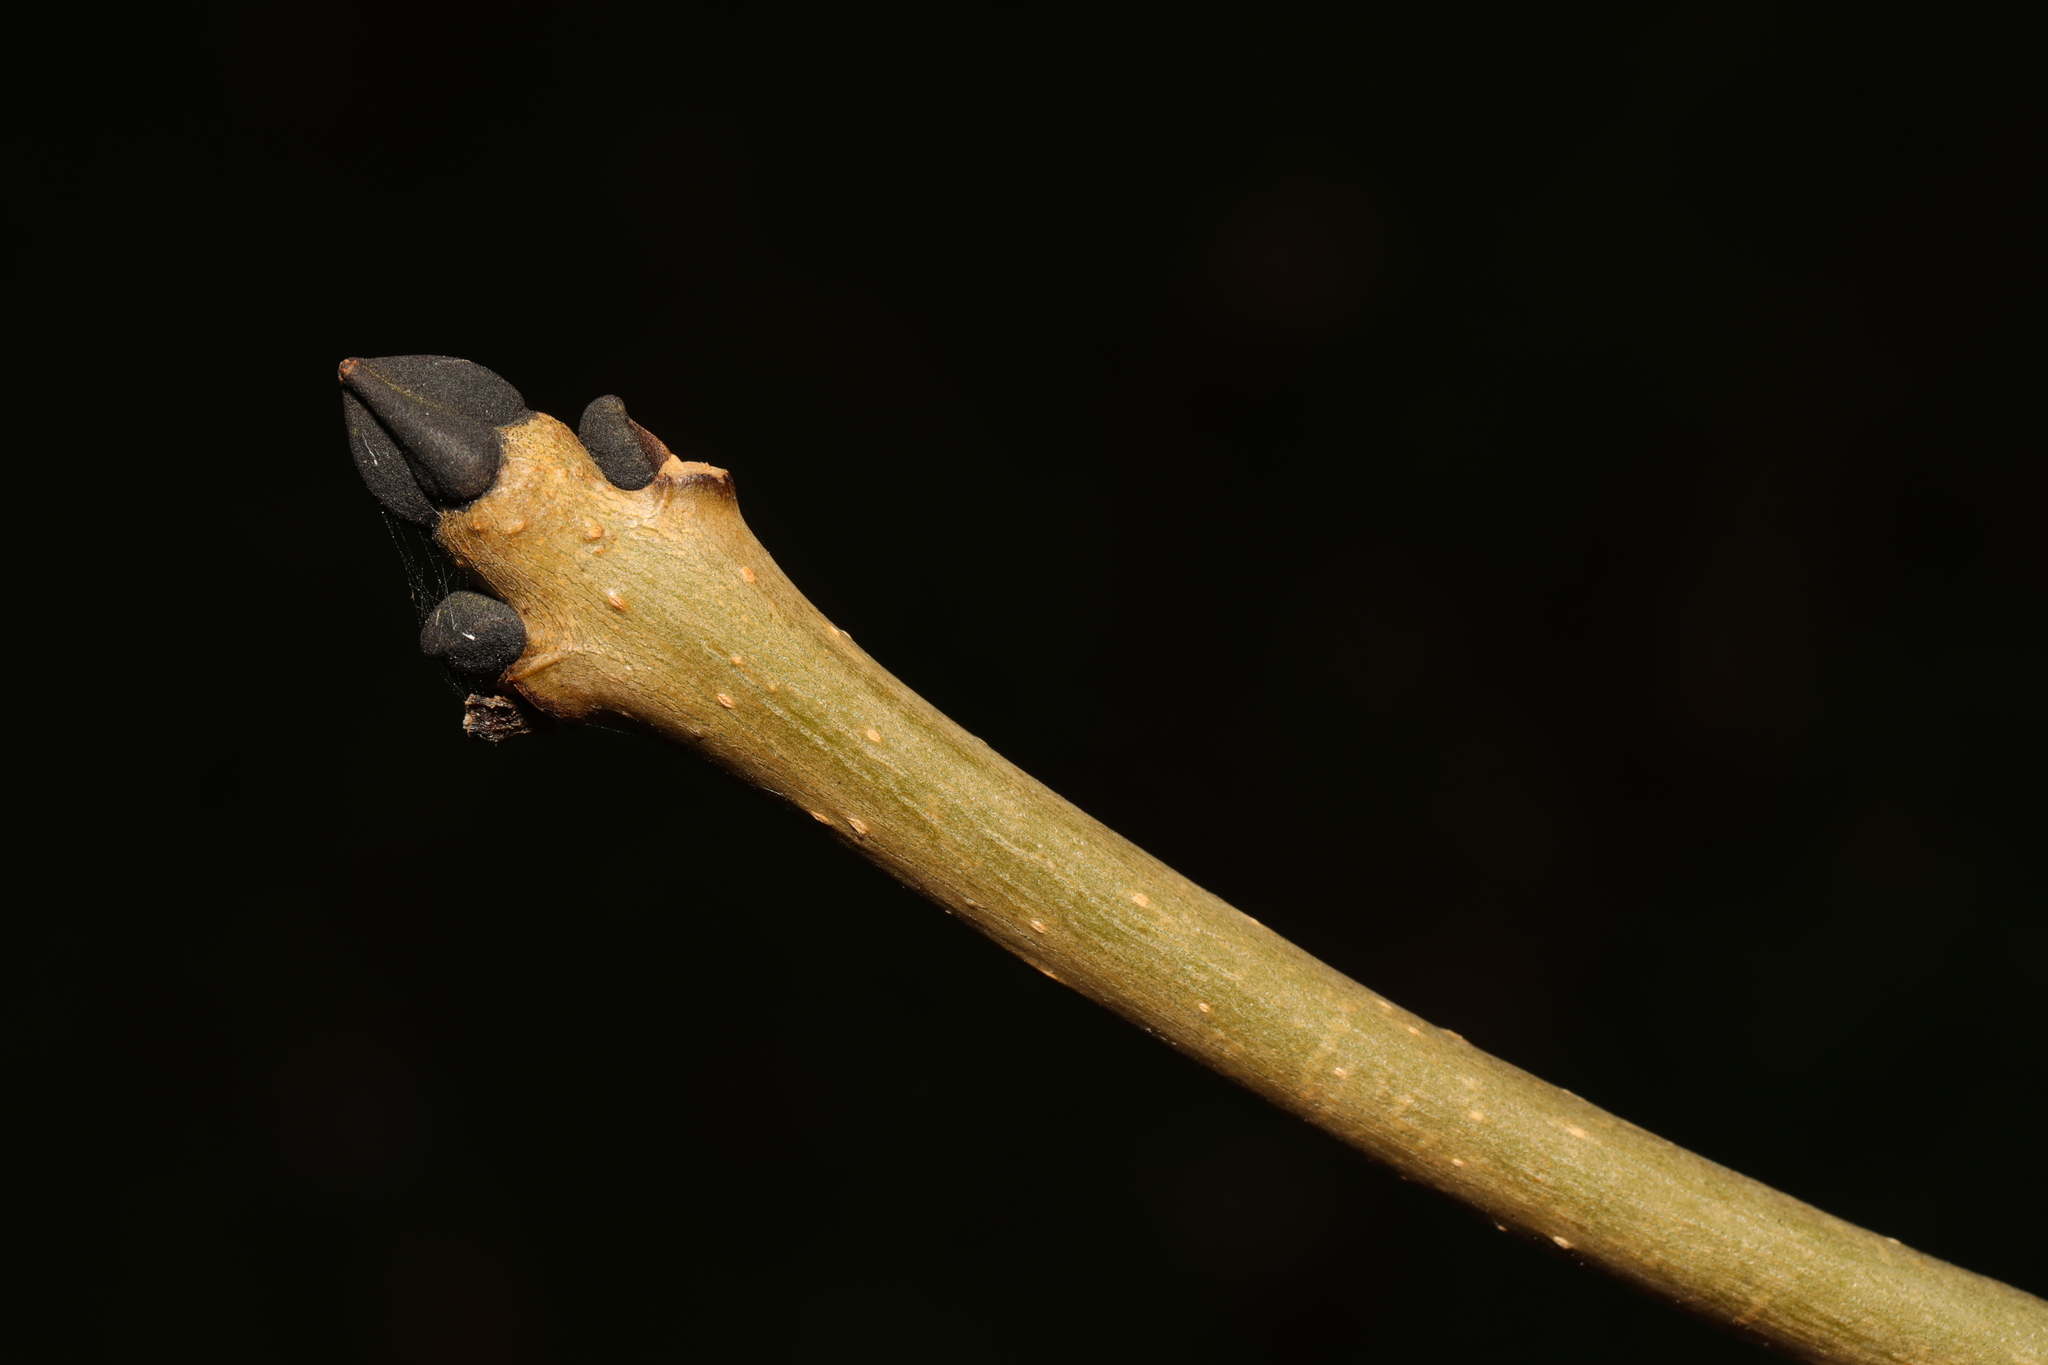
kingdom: Plantae
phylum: Tracheophyta
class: Magnoliopsida
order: Lamiales
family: Oleaceae
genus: Fraxinus
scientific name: Fraxinus excelsior
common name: European ash
